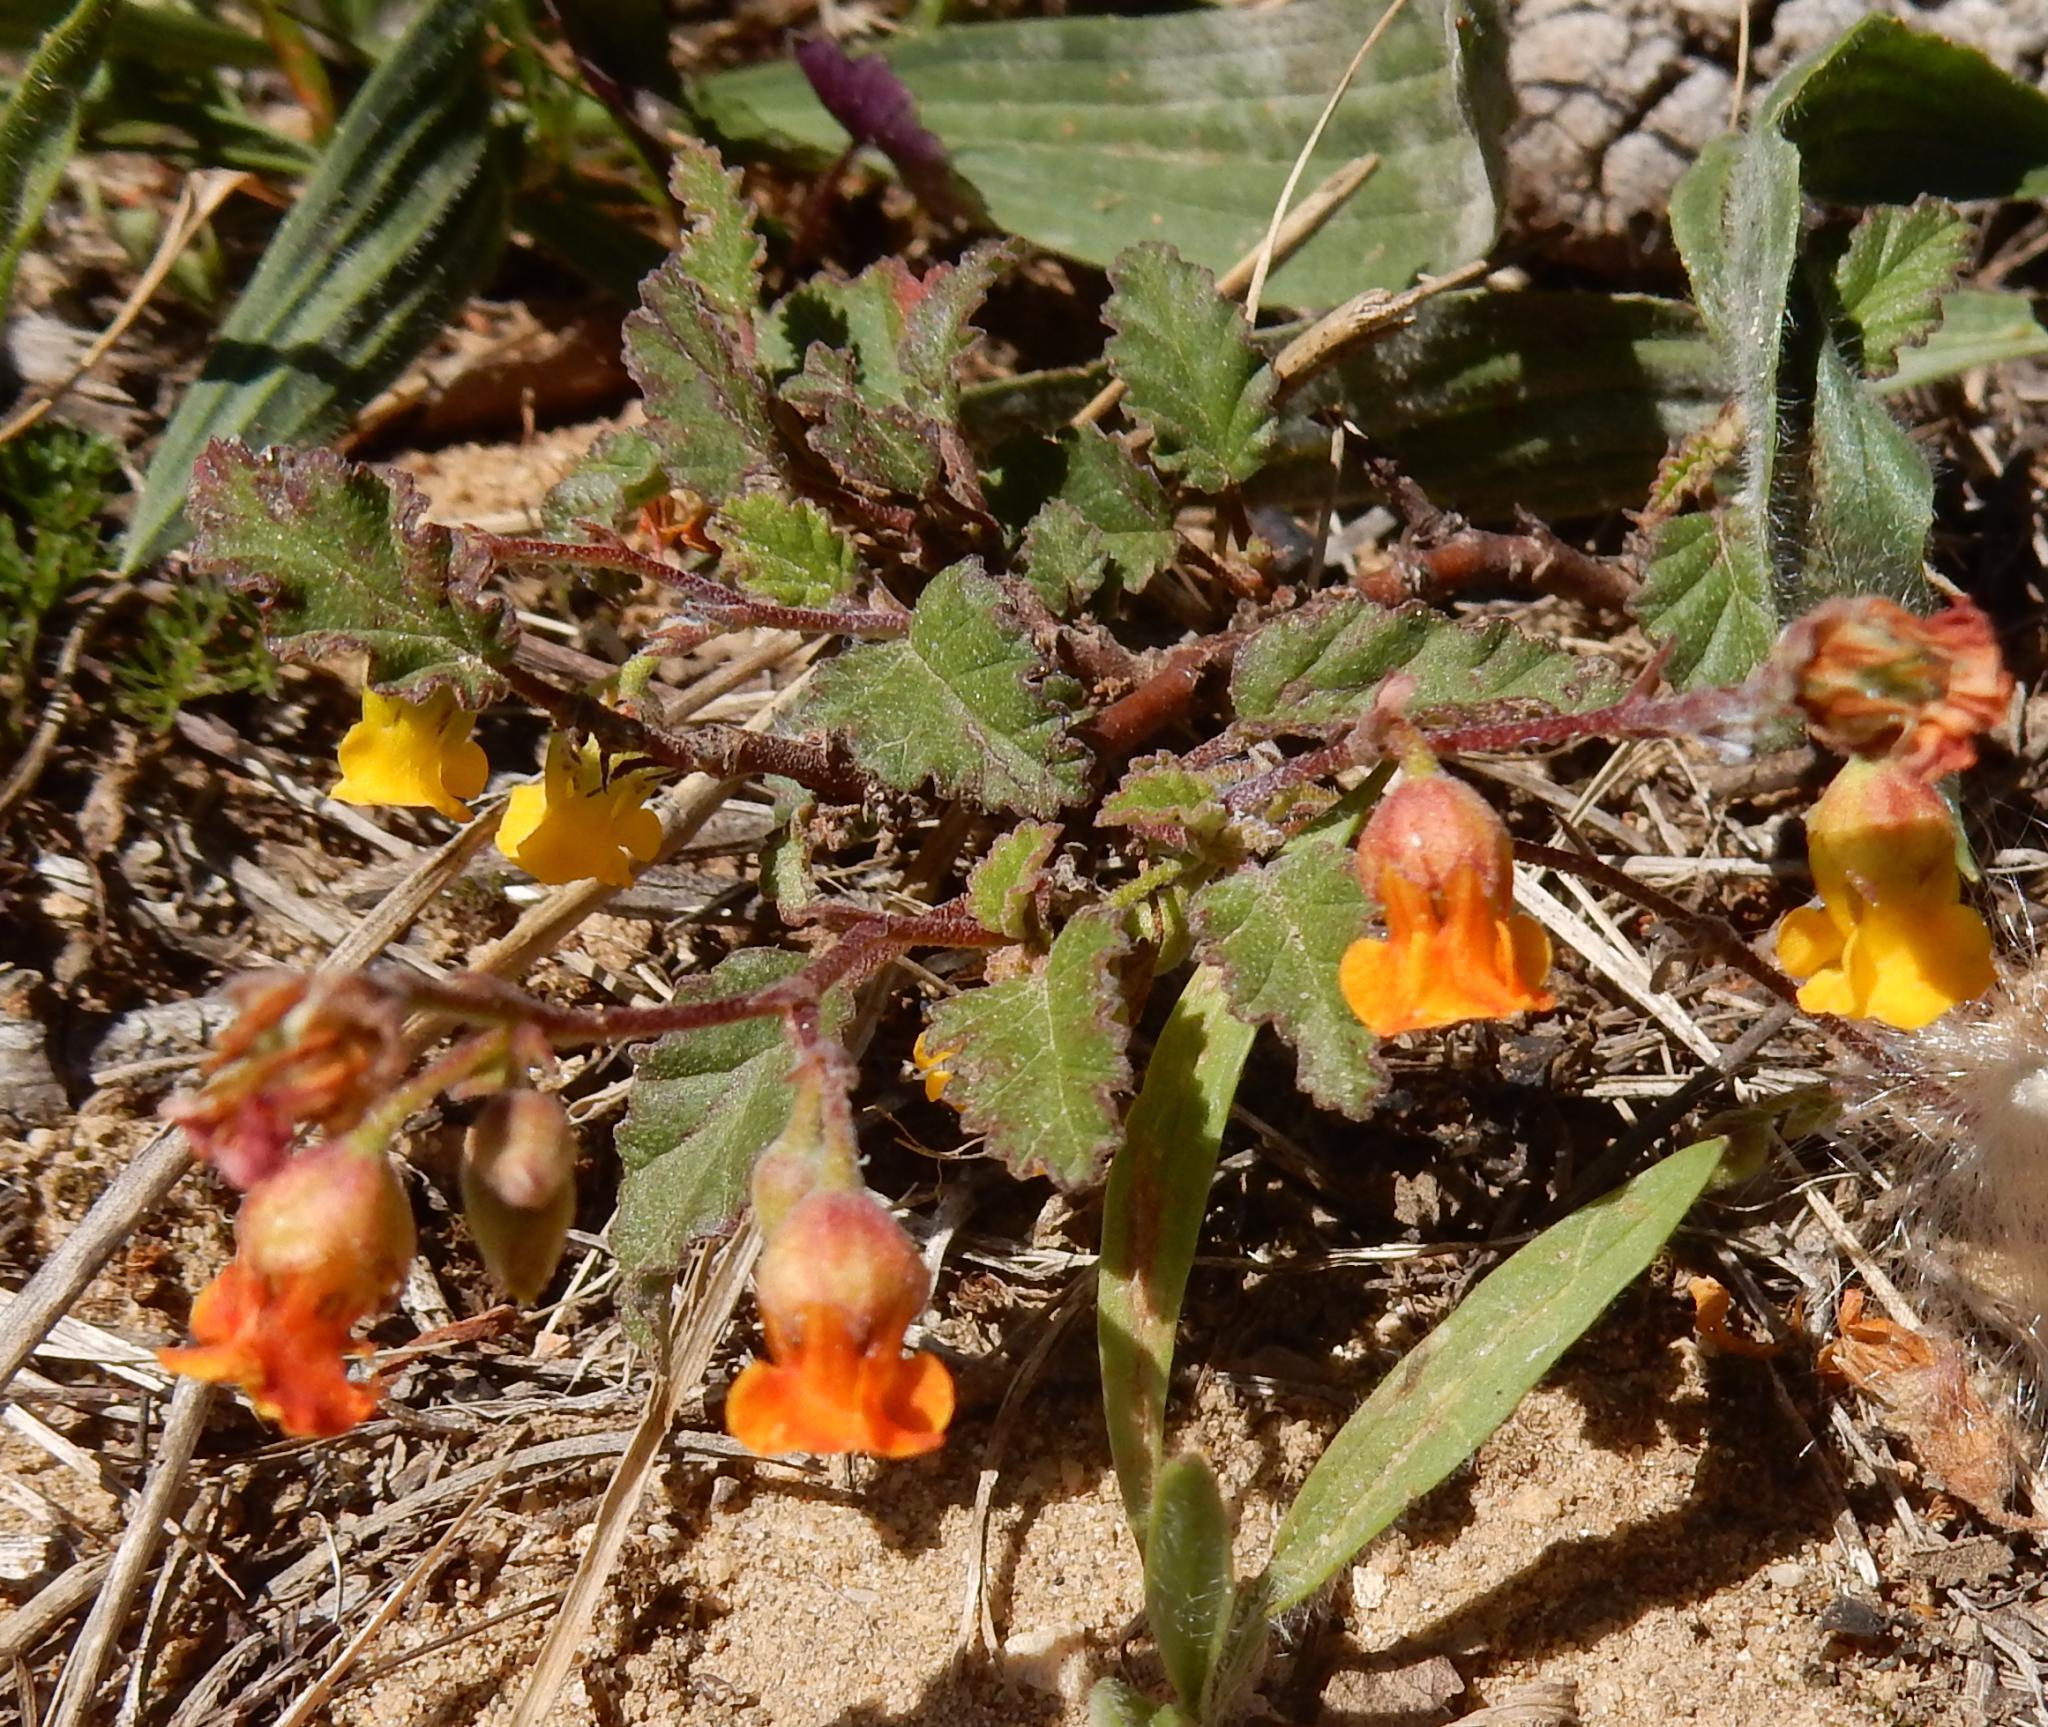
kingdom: Plantae
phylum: Tracheophyta
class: Magnoliopsida
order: Malvales
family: Malvaceae
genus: Hermannia
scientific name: Hermannia althaeoides
